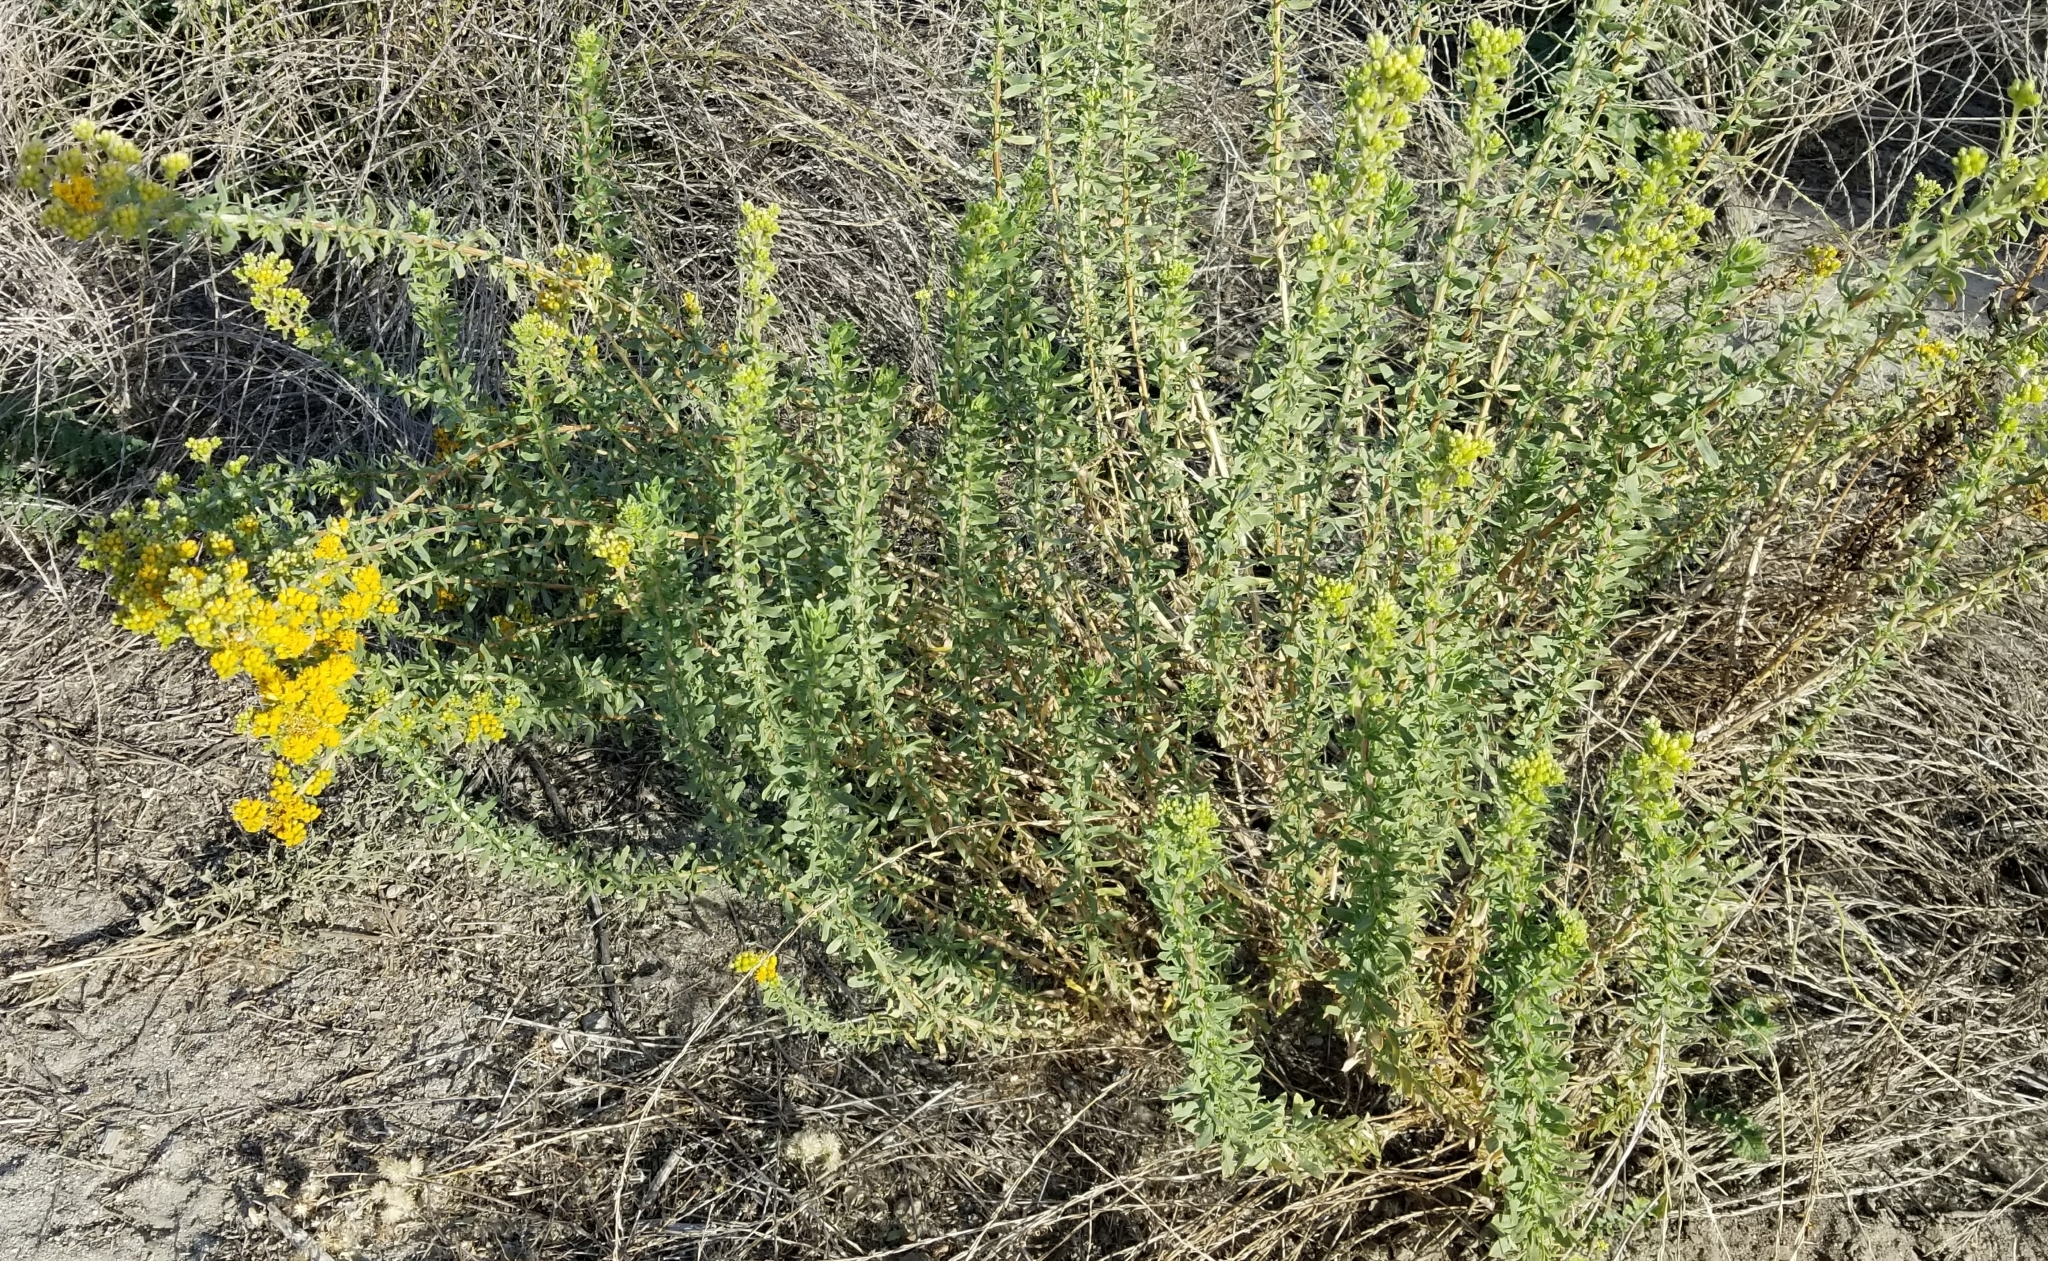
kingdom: Plantae
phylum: Tracheophyta
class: Magnoliopsida
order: Asterales
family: Asteraceae
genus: Isocoma
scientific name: Isocoma menziesii
